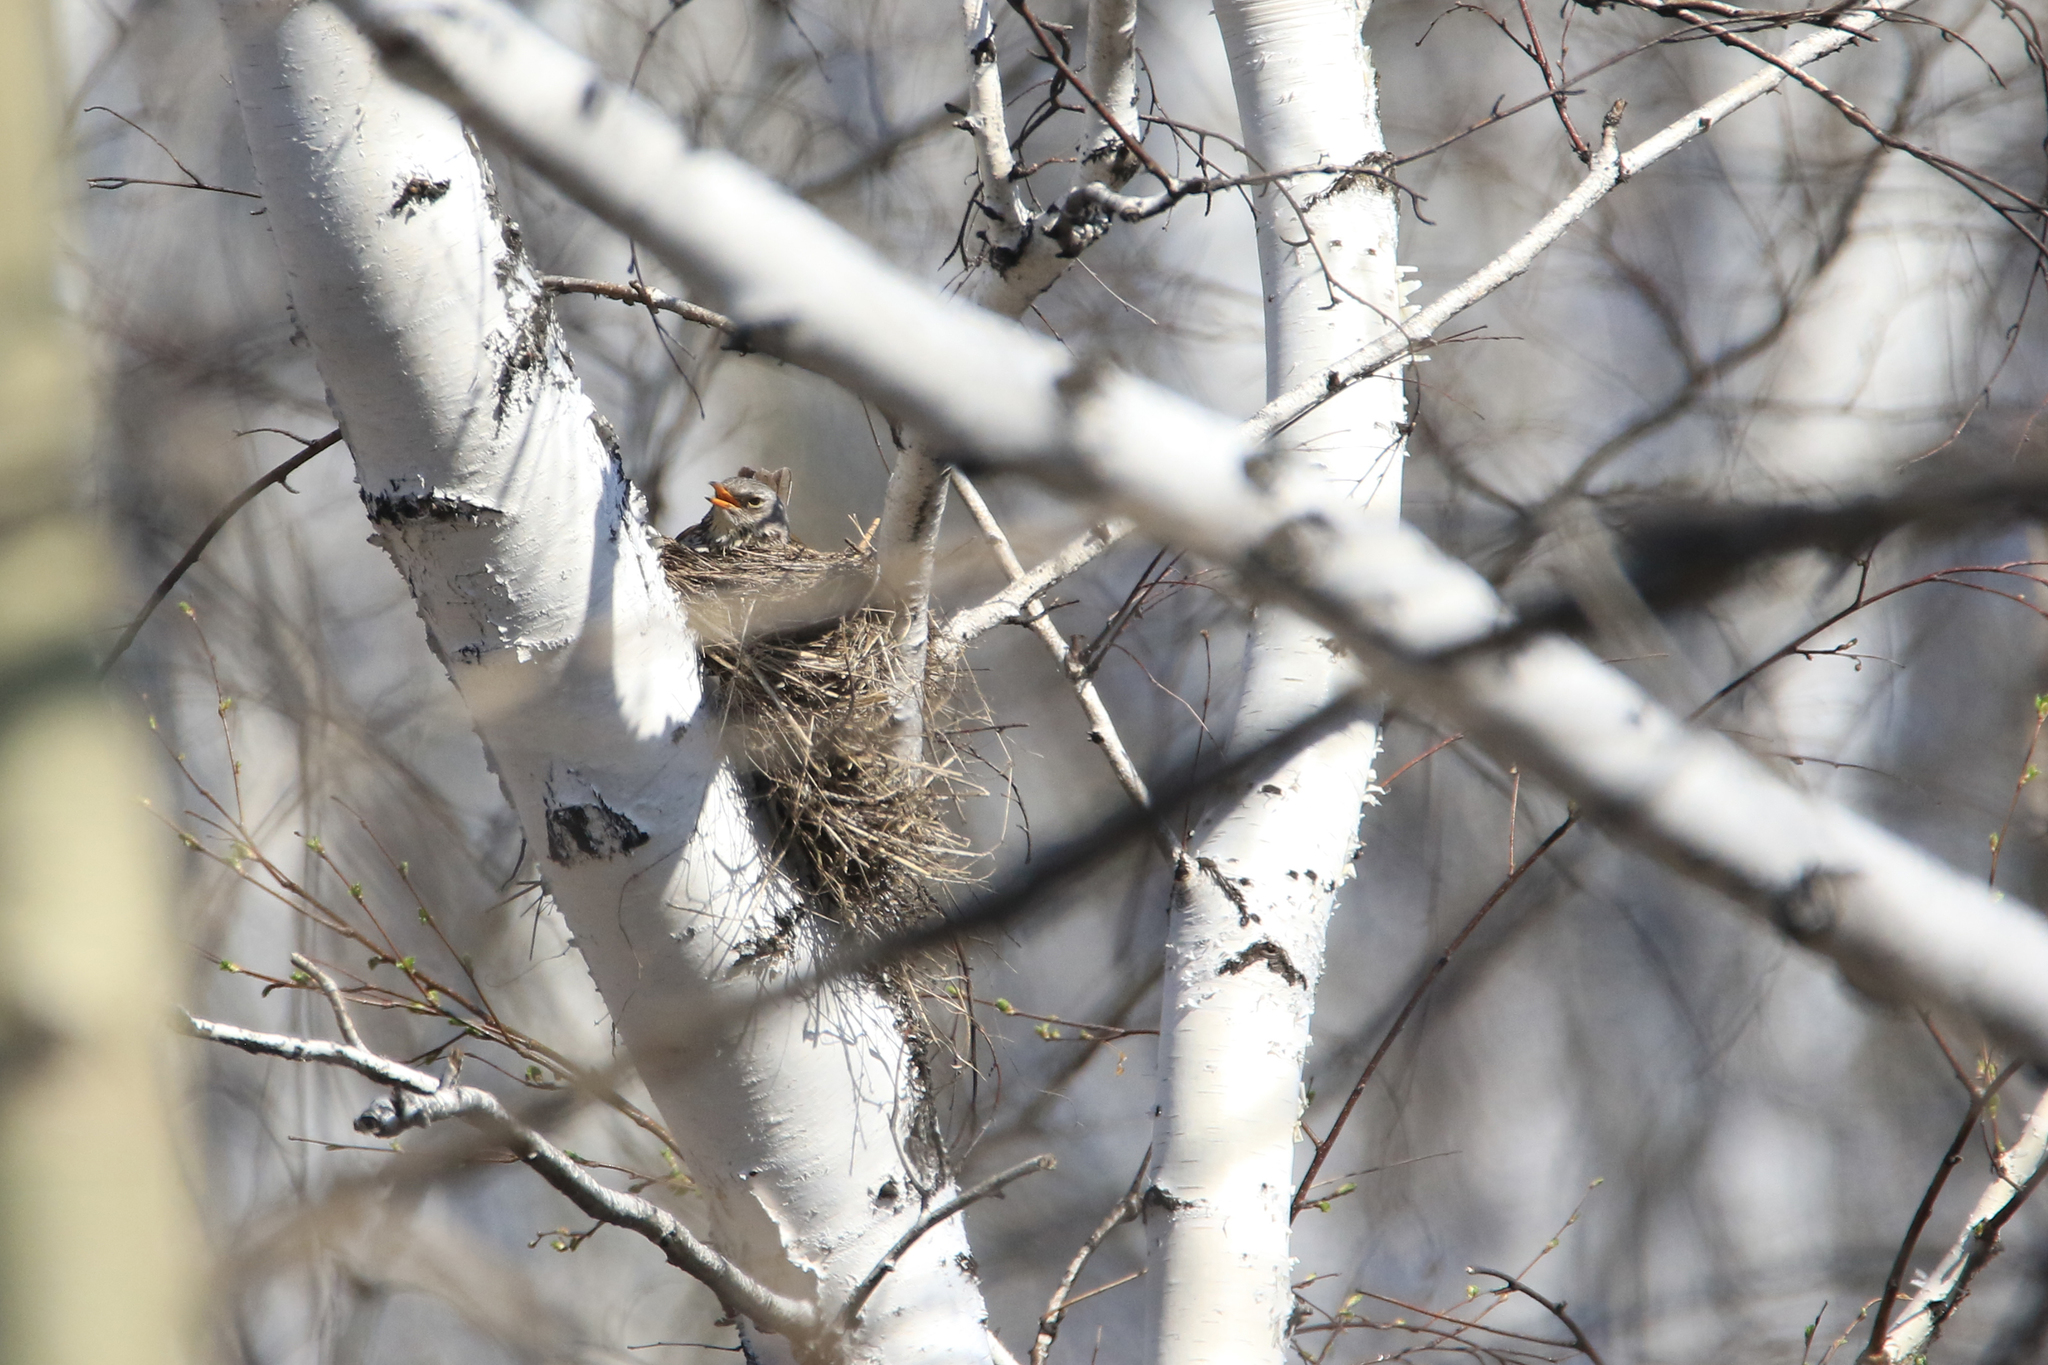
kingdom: Animalia
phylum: Chordata
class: Aves
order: Passeriformes
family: Turdidae
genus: Turdus
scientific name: Turdus pilaris
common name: Fieldfare
